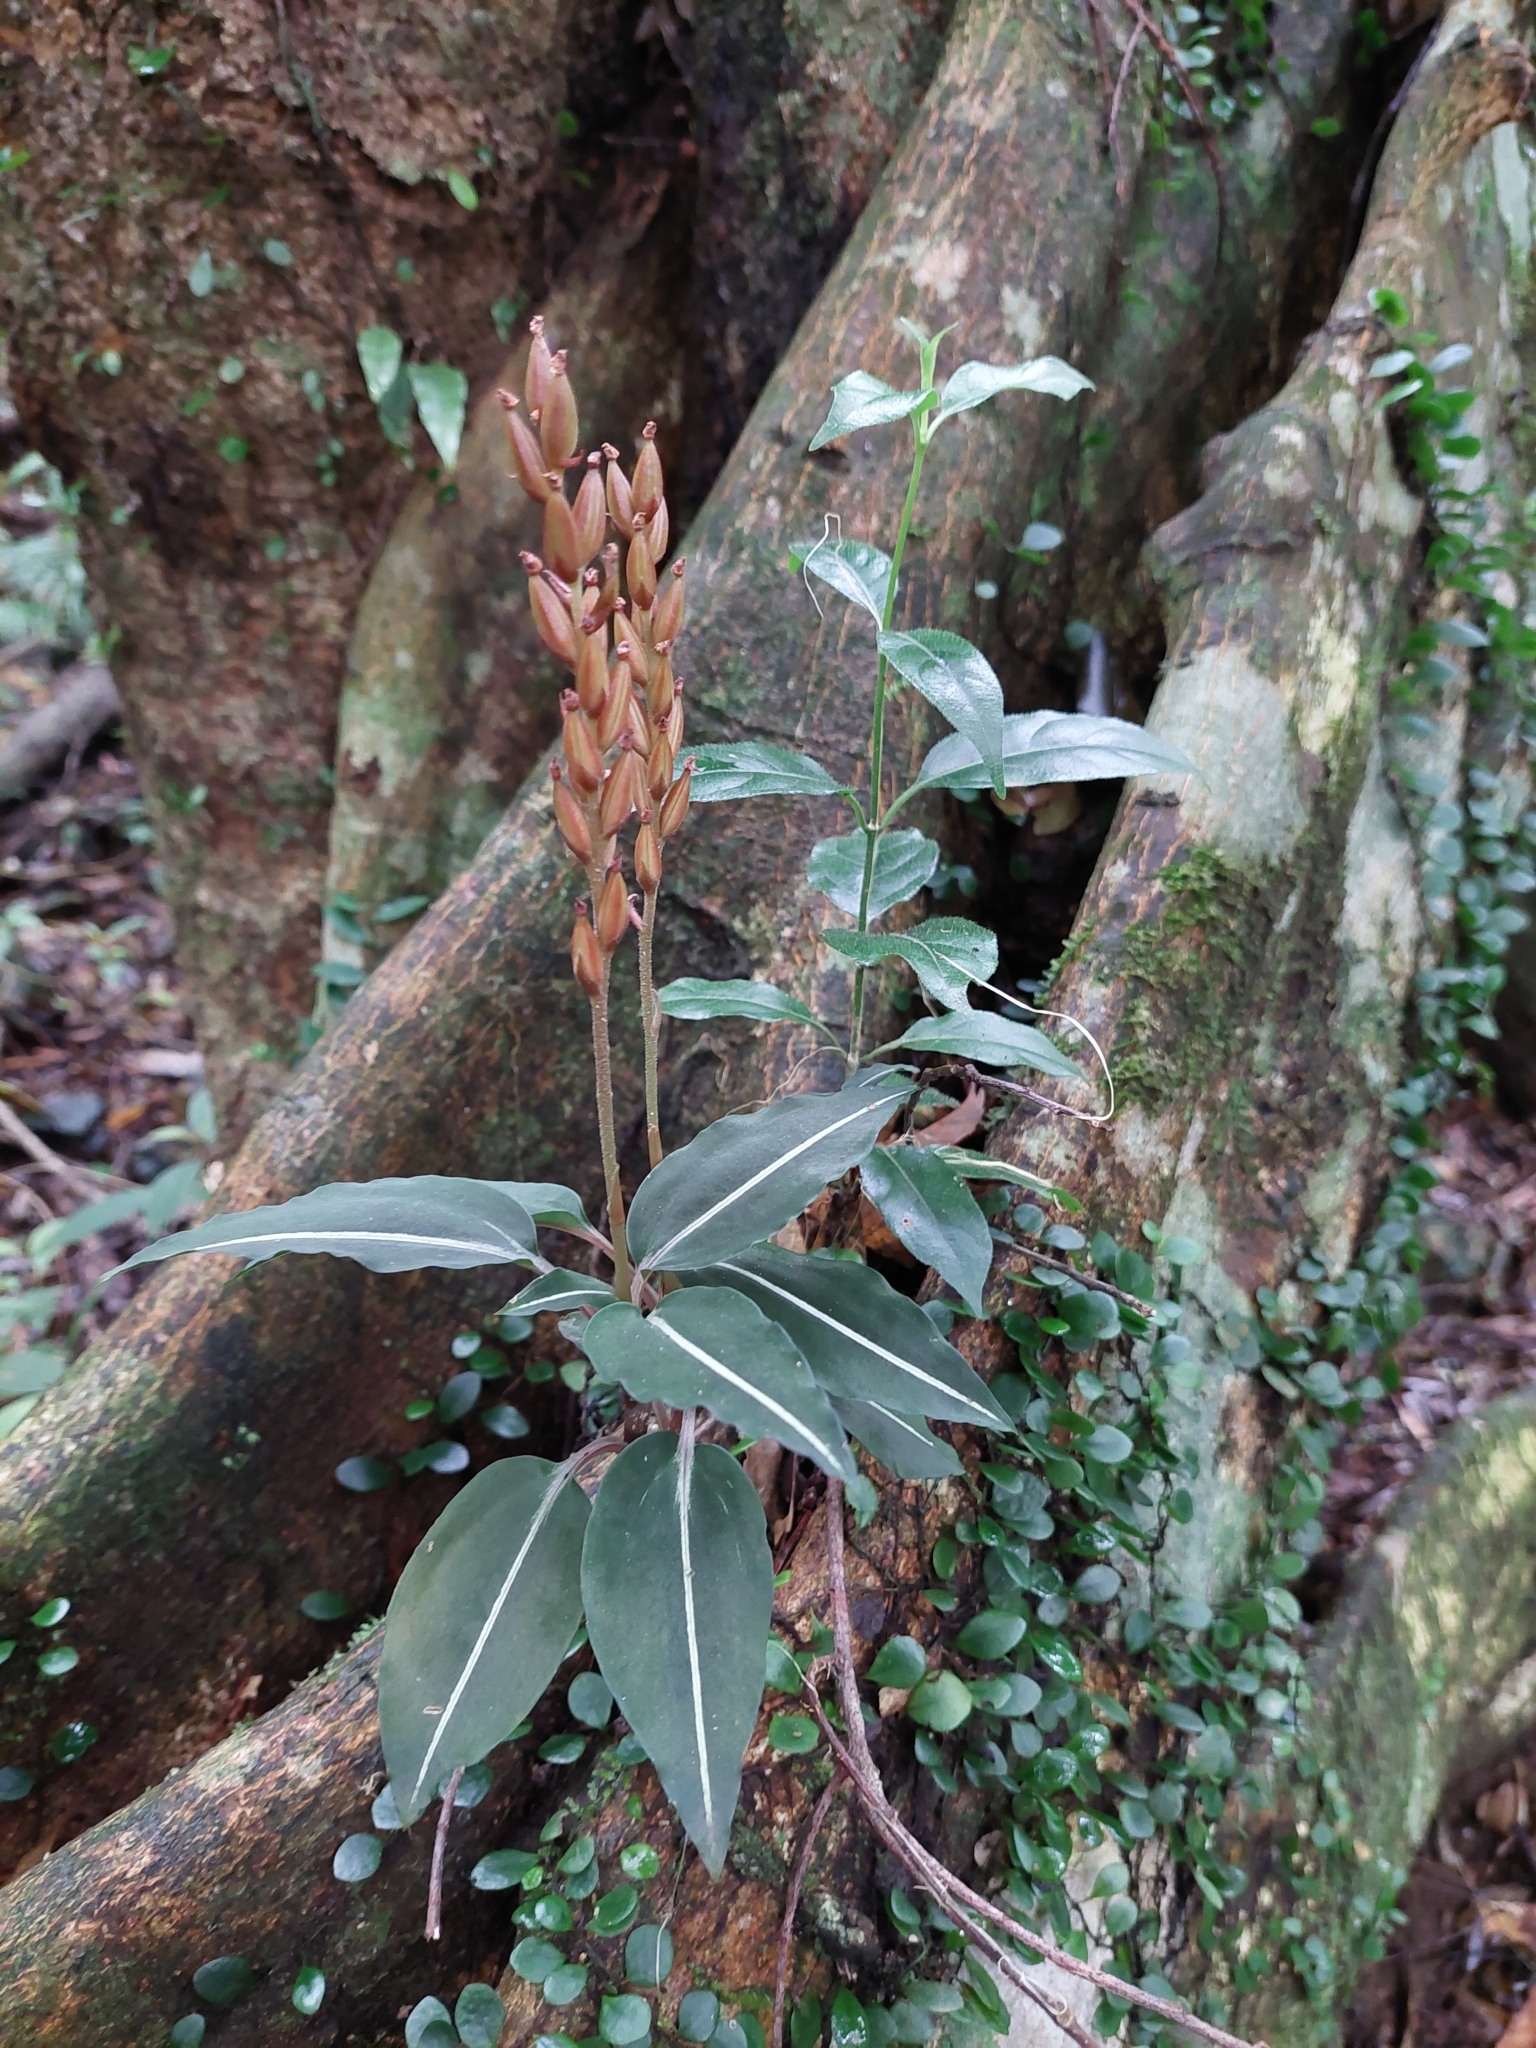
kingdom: Plantae
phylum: Tracheophyta
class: Liliopsida
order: Asparagales
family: Orchidaceae
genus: Rhomboda
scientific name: Rhomboda yakusimensis
